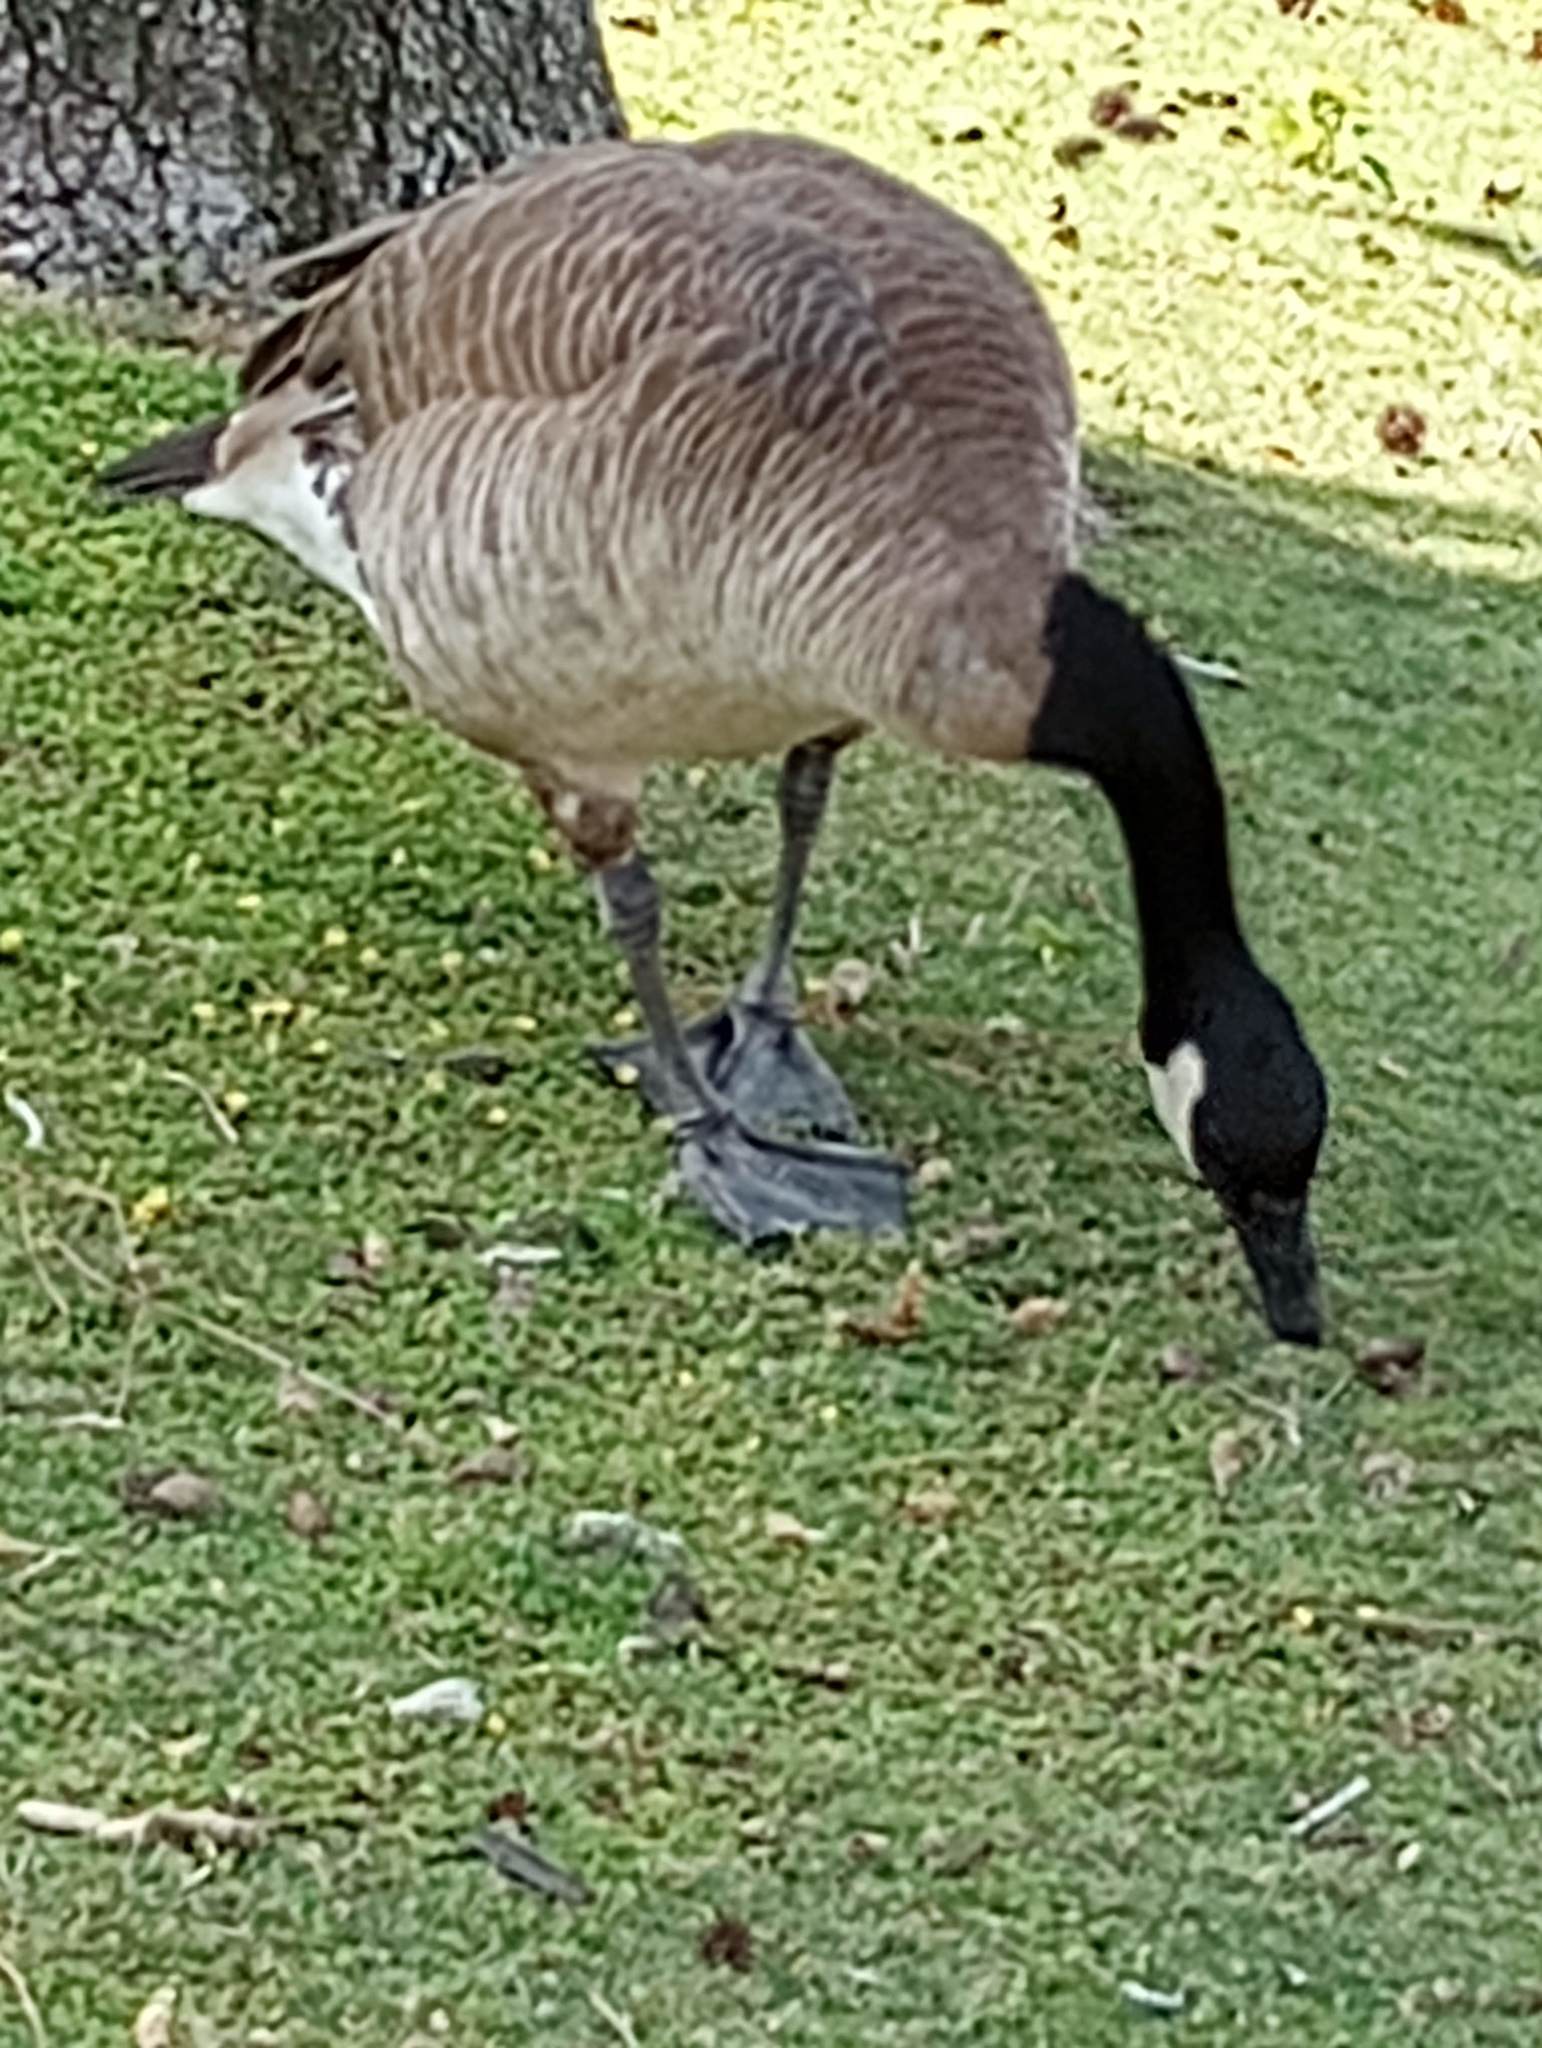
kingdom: Animalia
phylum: Chordata
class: Aves
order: Anseriformes
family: Anatidae
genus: Branta
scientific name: Branta canadensis
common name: Canada goose
